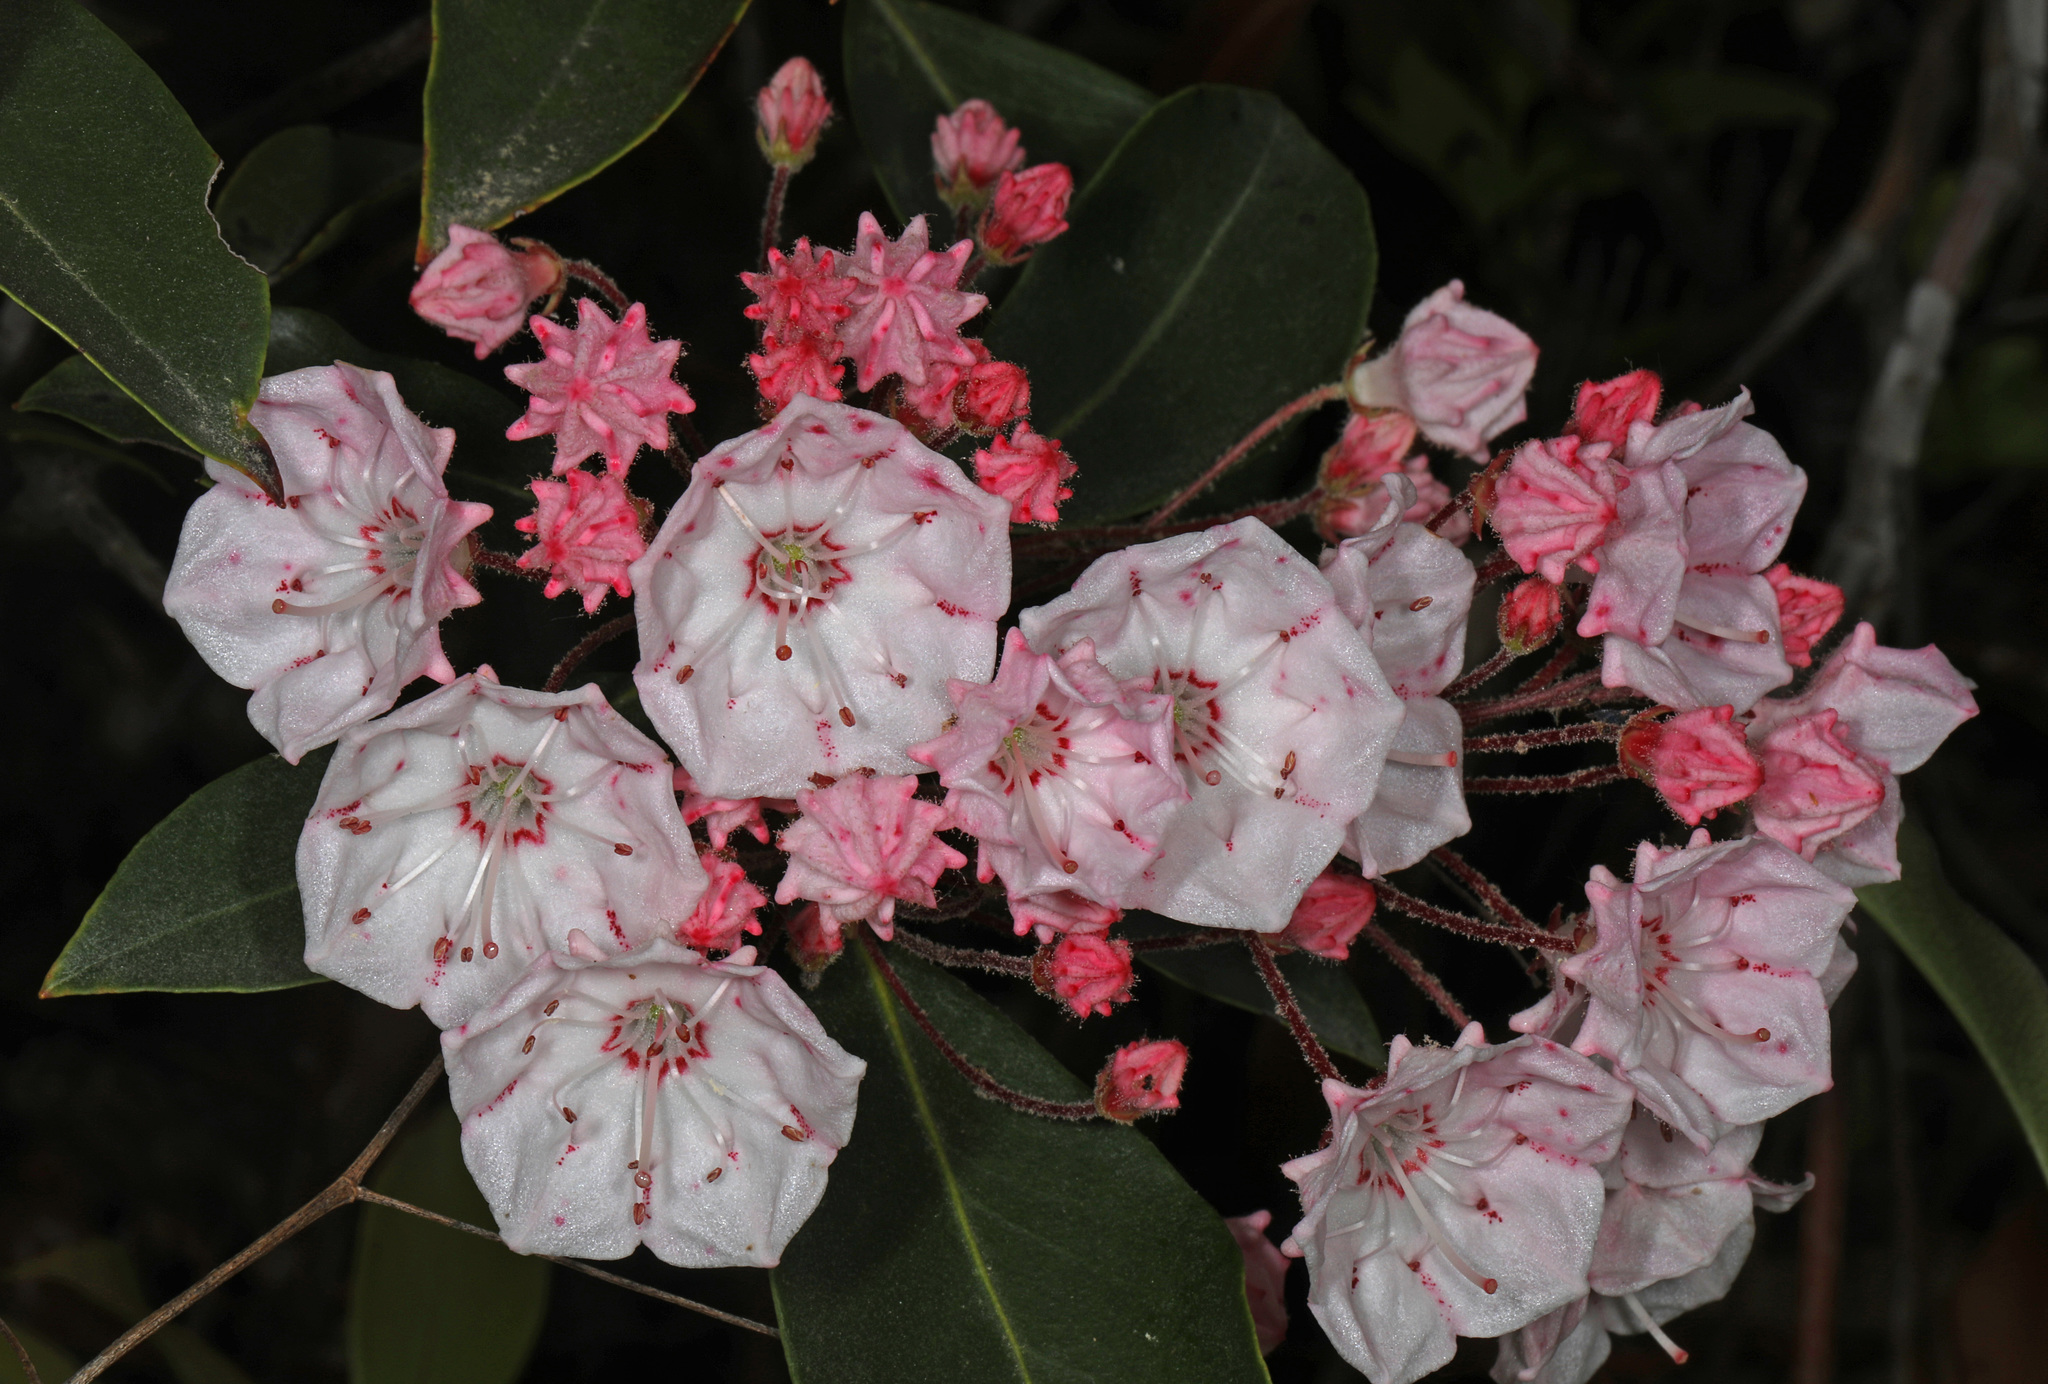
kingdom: Plantae
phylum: Tracheophyta
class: Magnoliopsida
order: Ericales
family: Ericaceae
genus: Kalmia
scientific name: Kalmia latifolia
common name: Mountain-laurel
